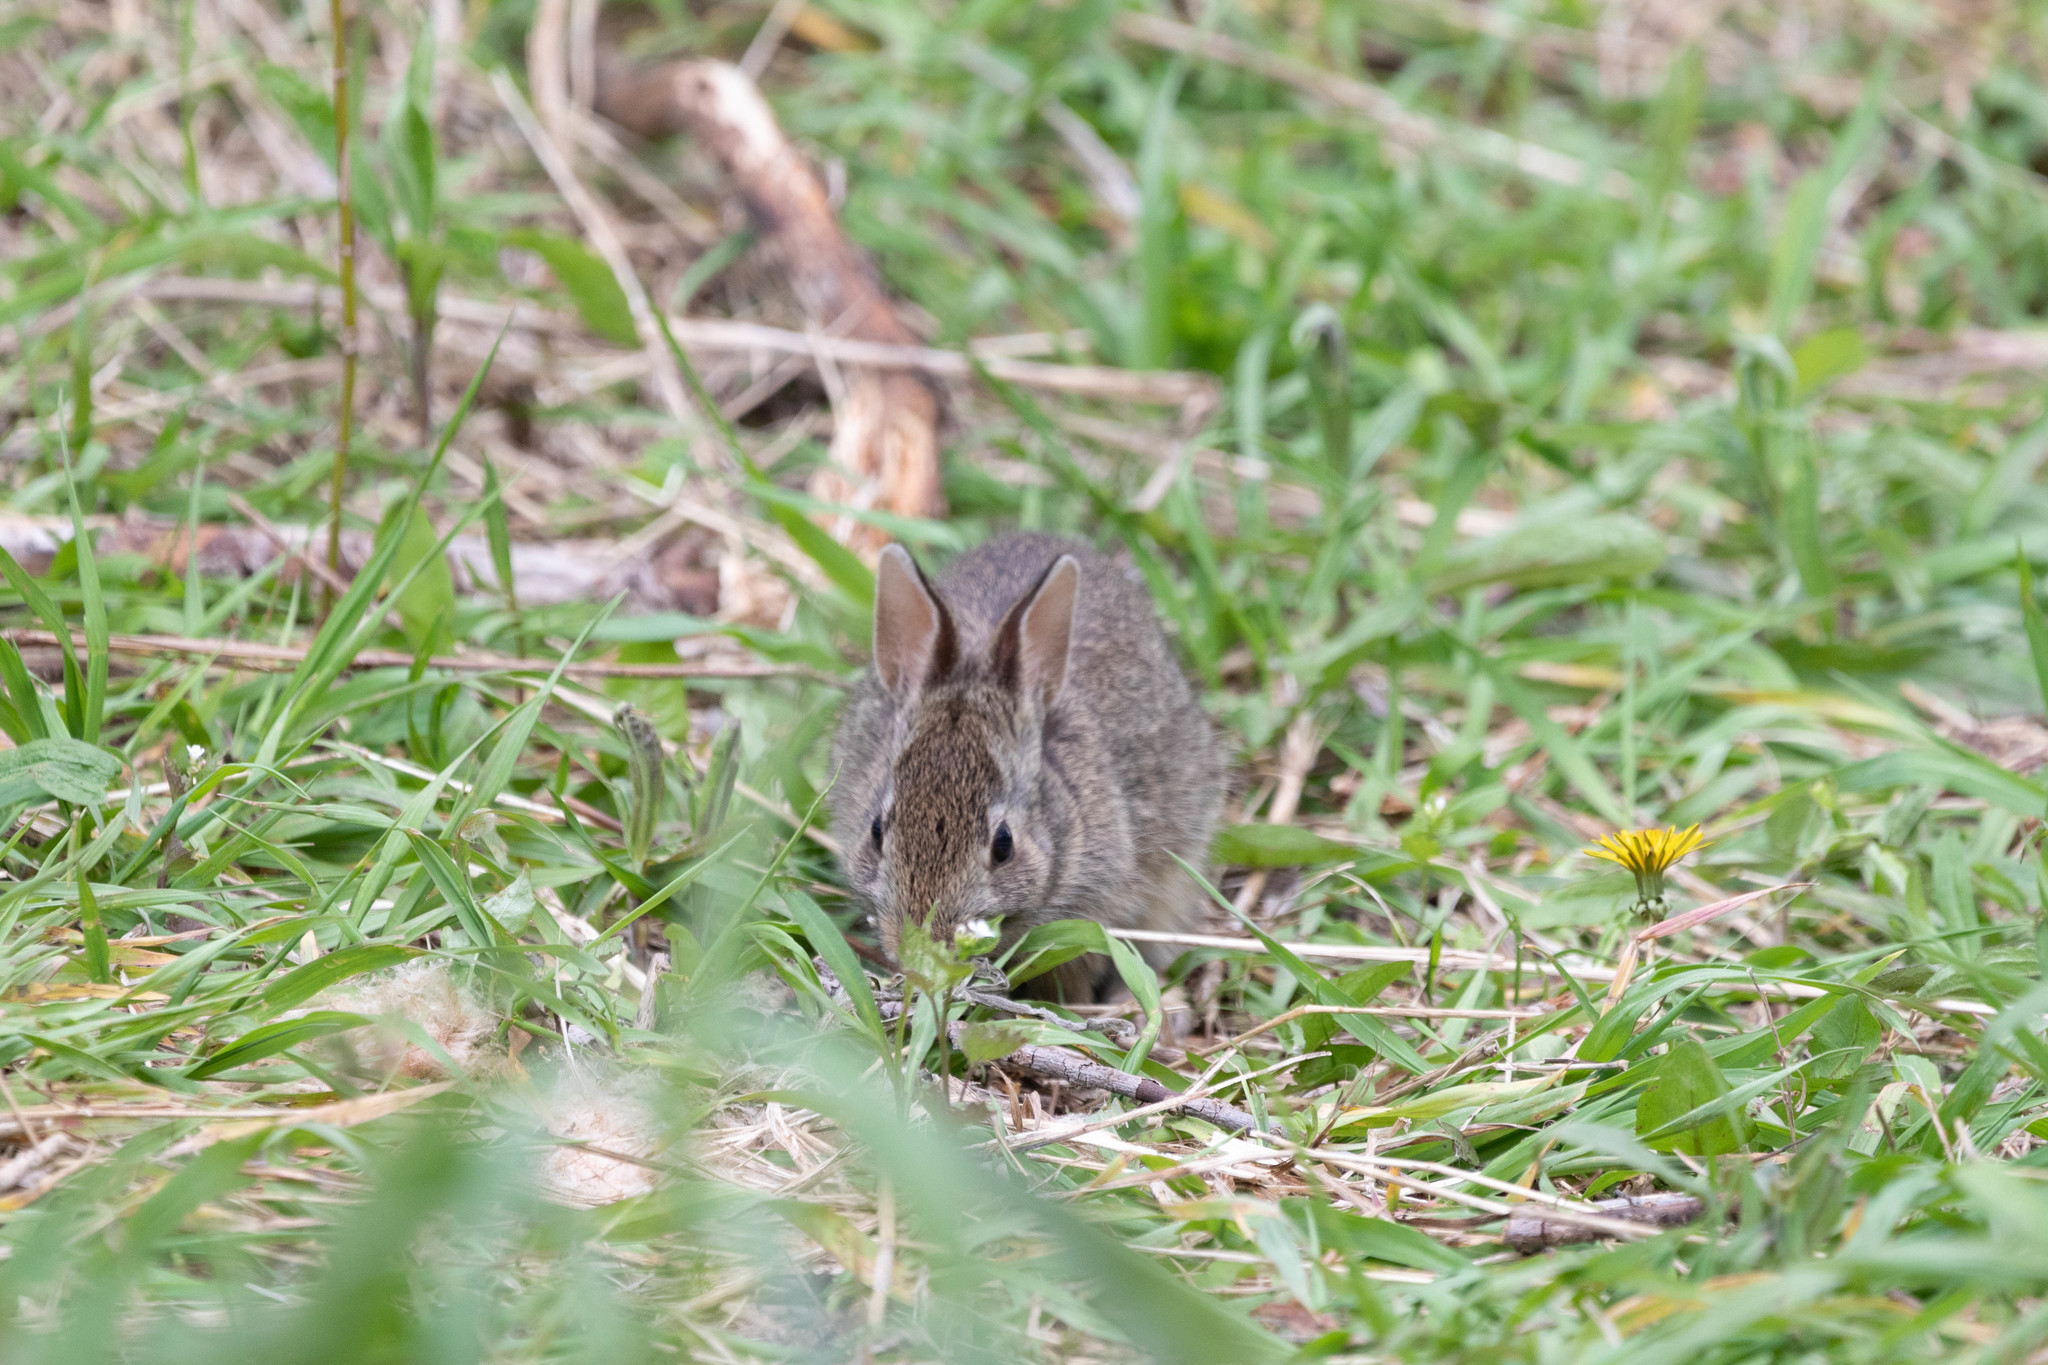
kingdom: Animalia
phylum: Chordata
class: Mammalia
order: Lagomorpha
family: Leporidae
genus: Sylvilagus
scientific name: Sylvilagus floridanus
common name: Eastern cottontail
